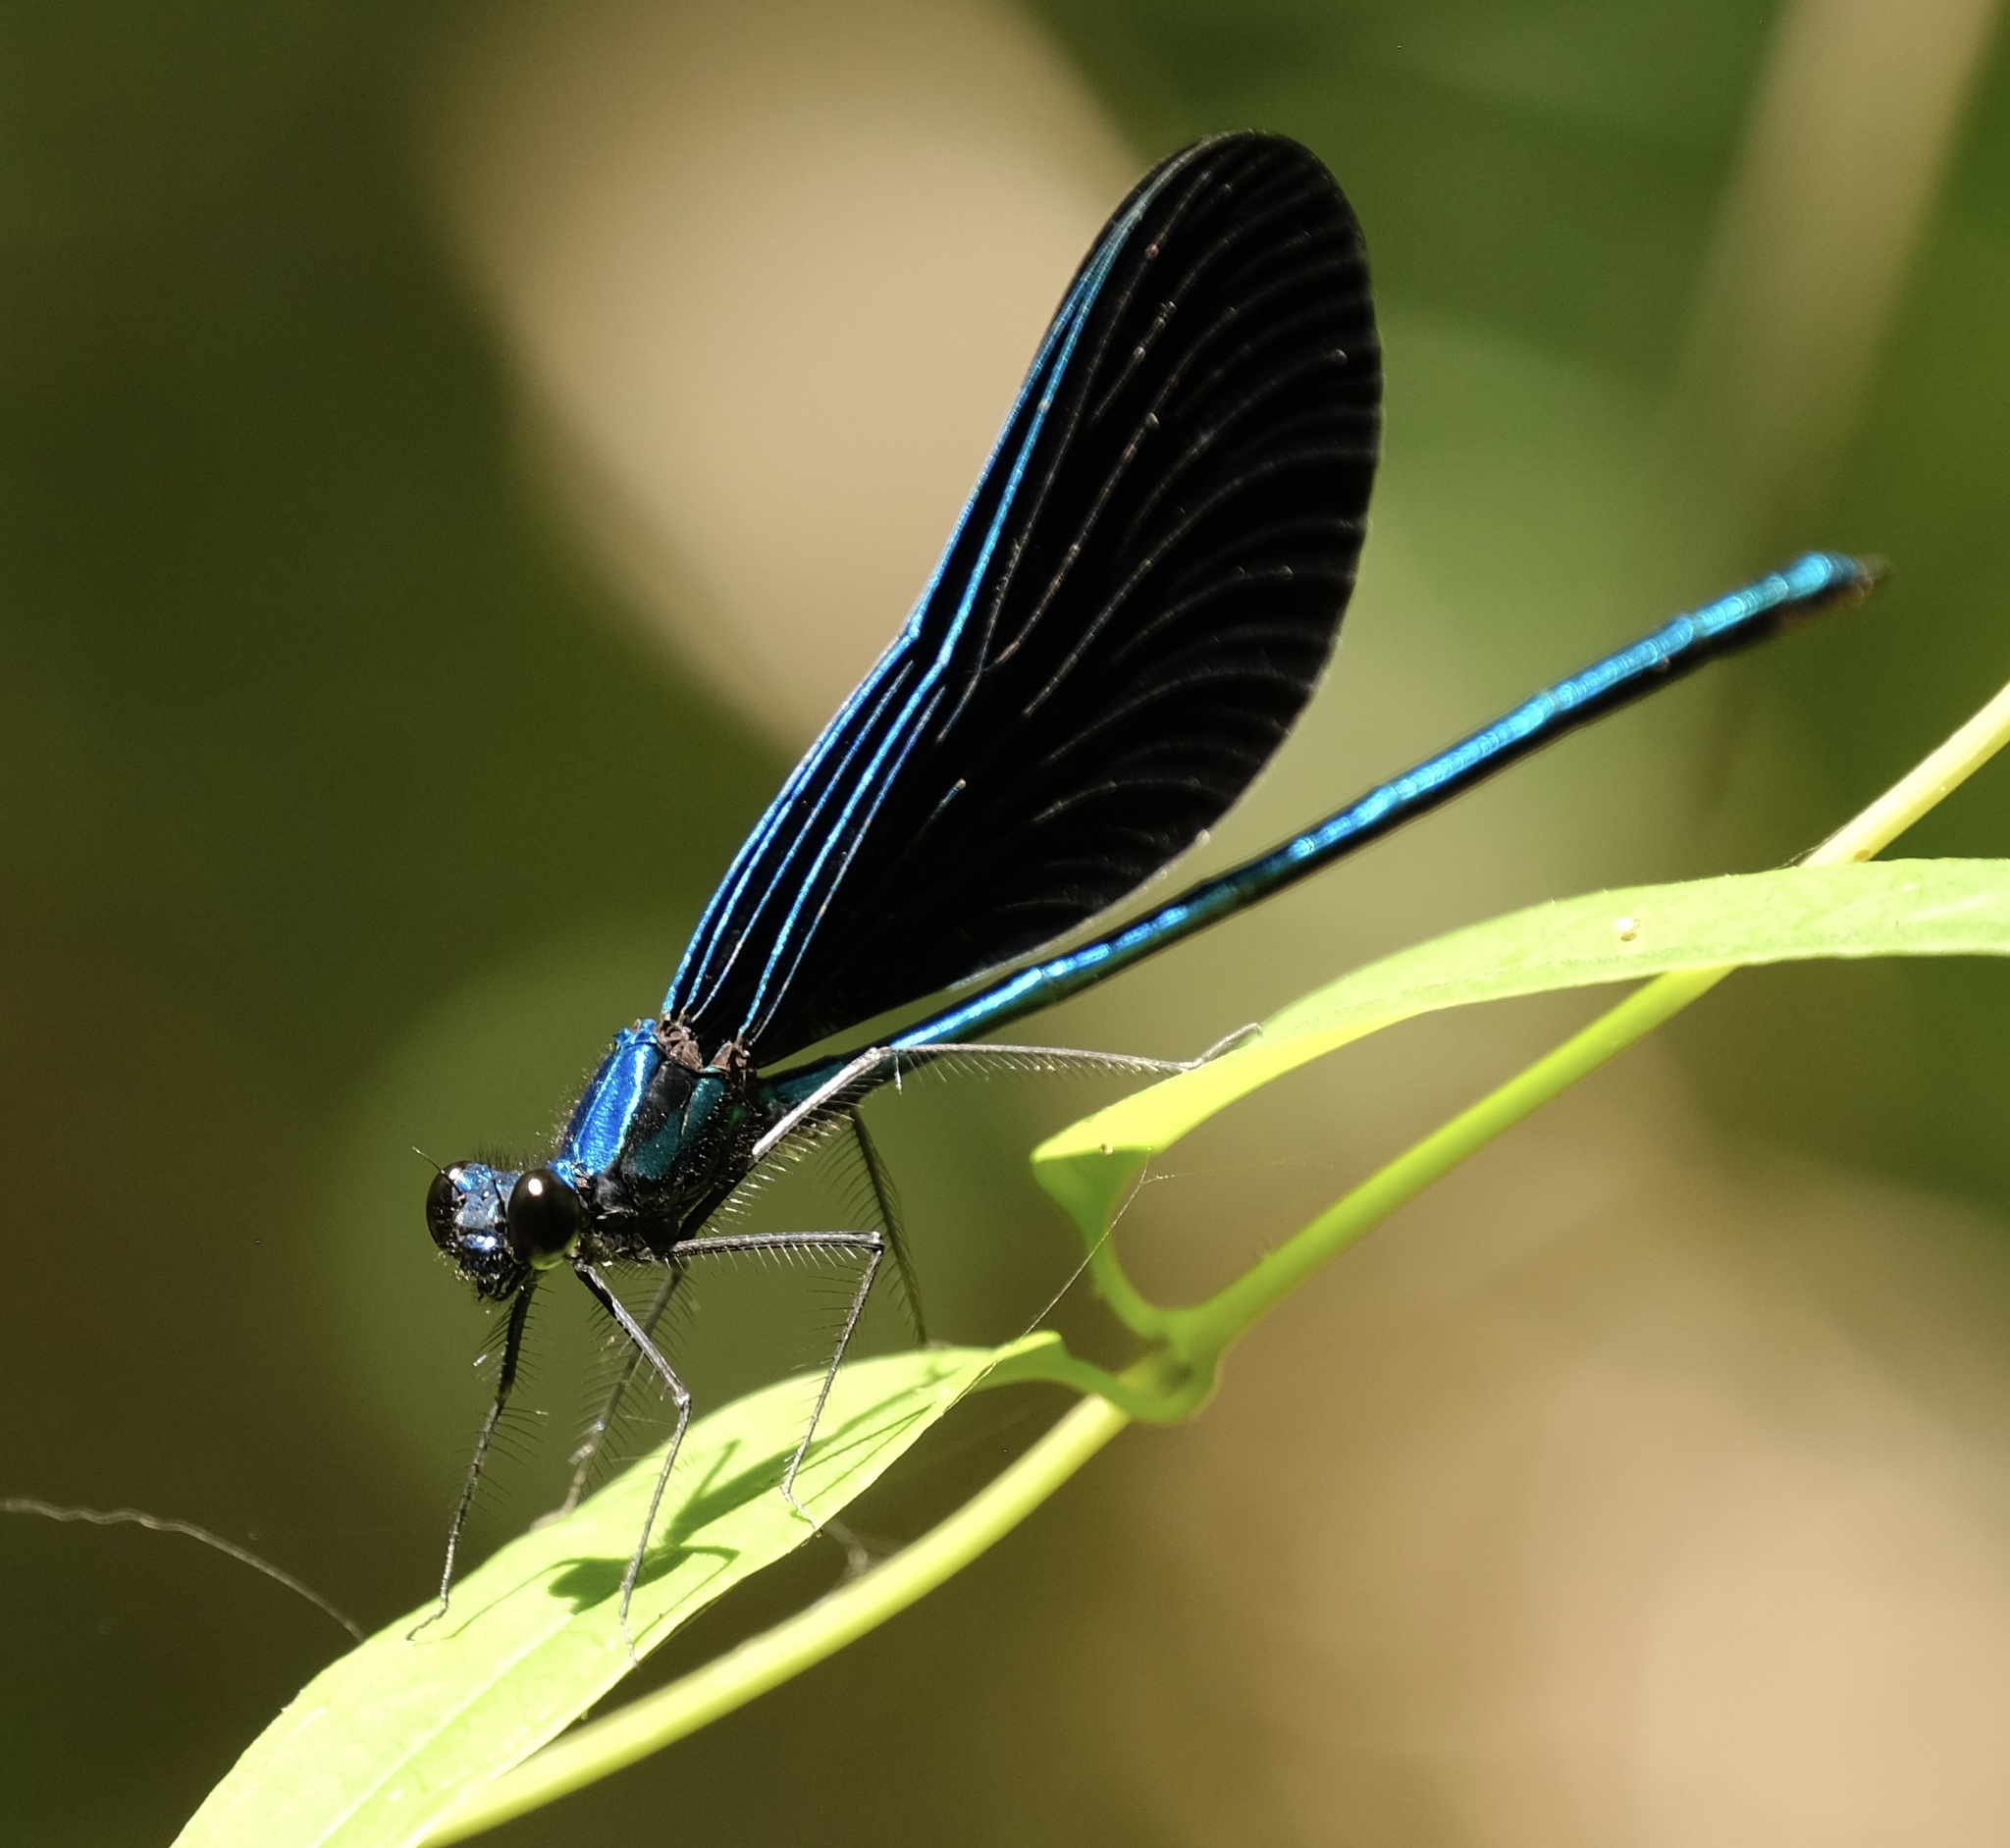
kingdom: Animalia
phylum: Arthropoda
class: Insecta
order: Odonata
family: Calopterygidae
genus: Calopteryx
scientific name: Calopteryx maculata
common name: Ebony jewelwing
